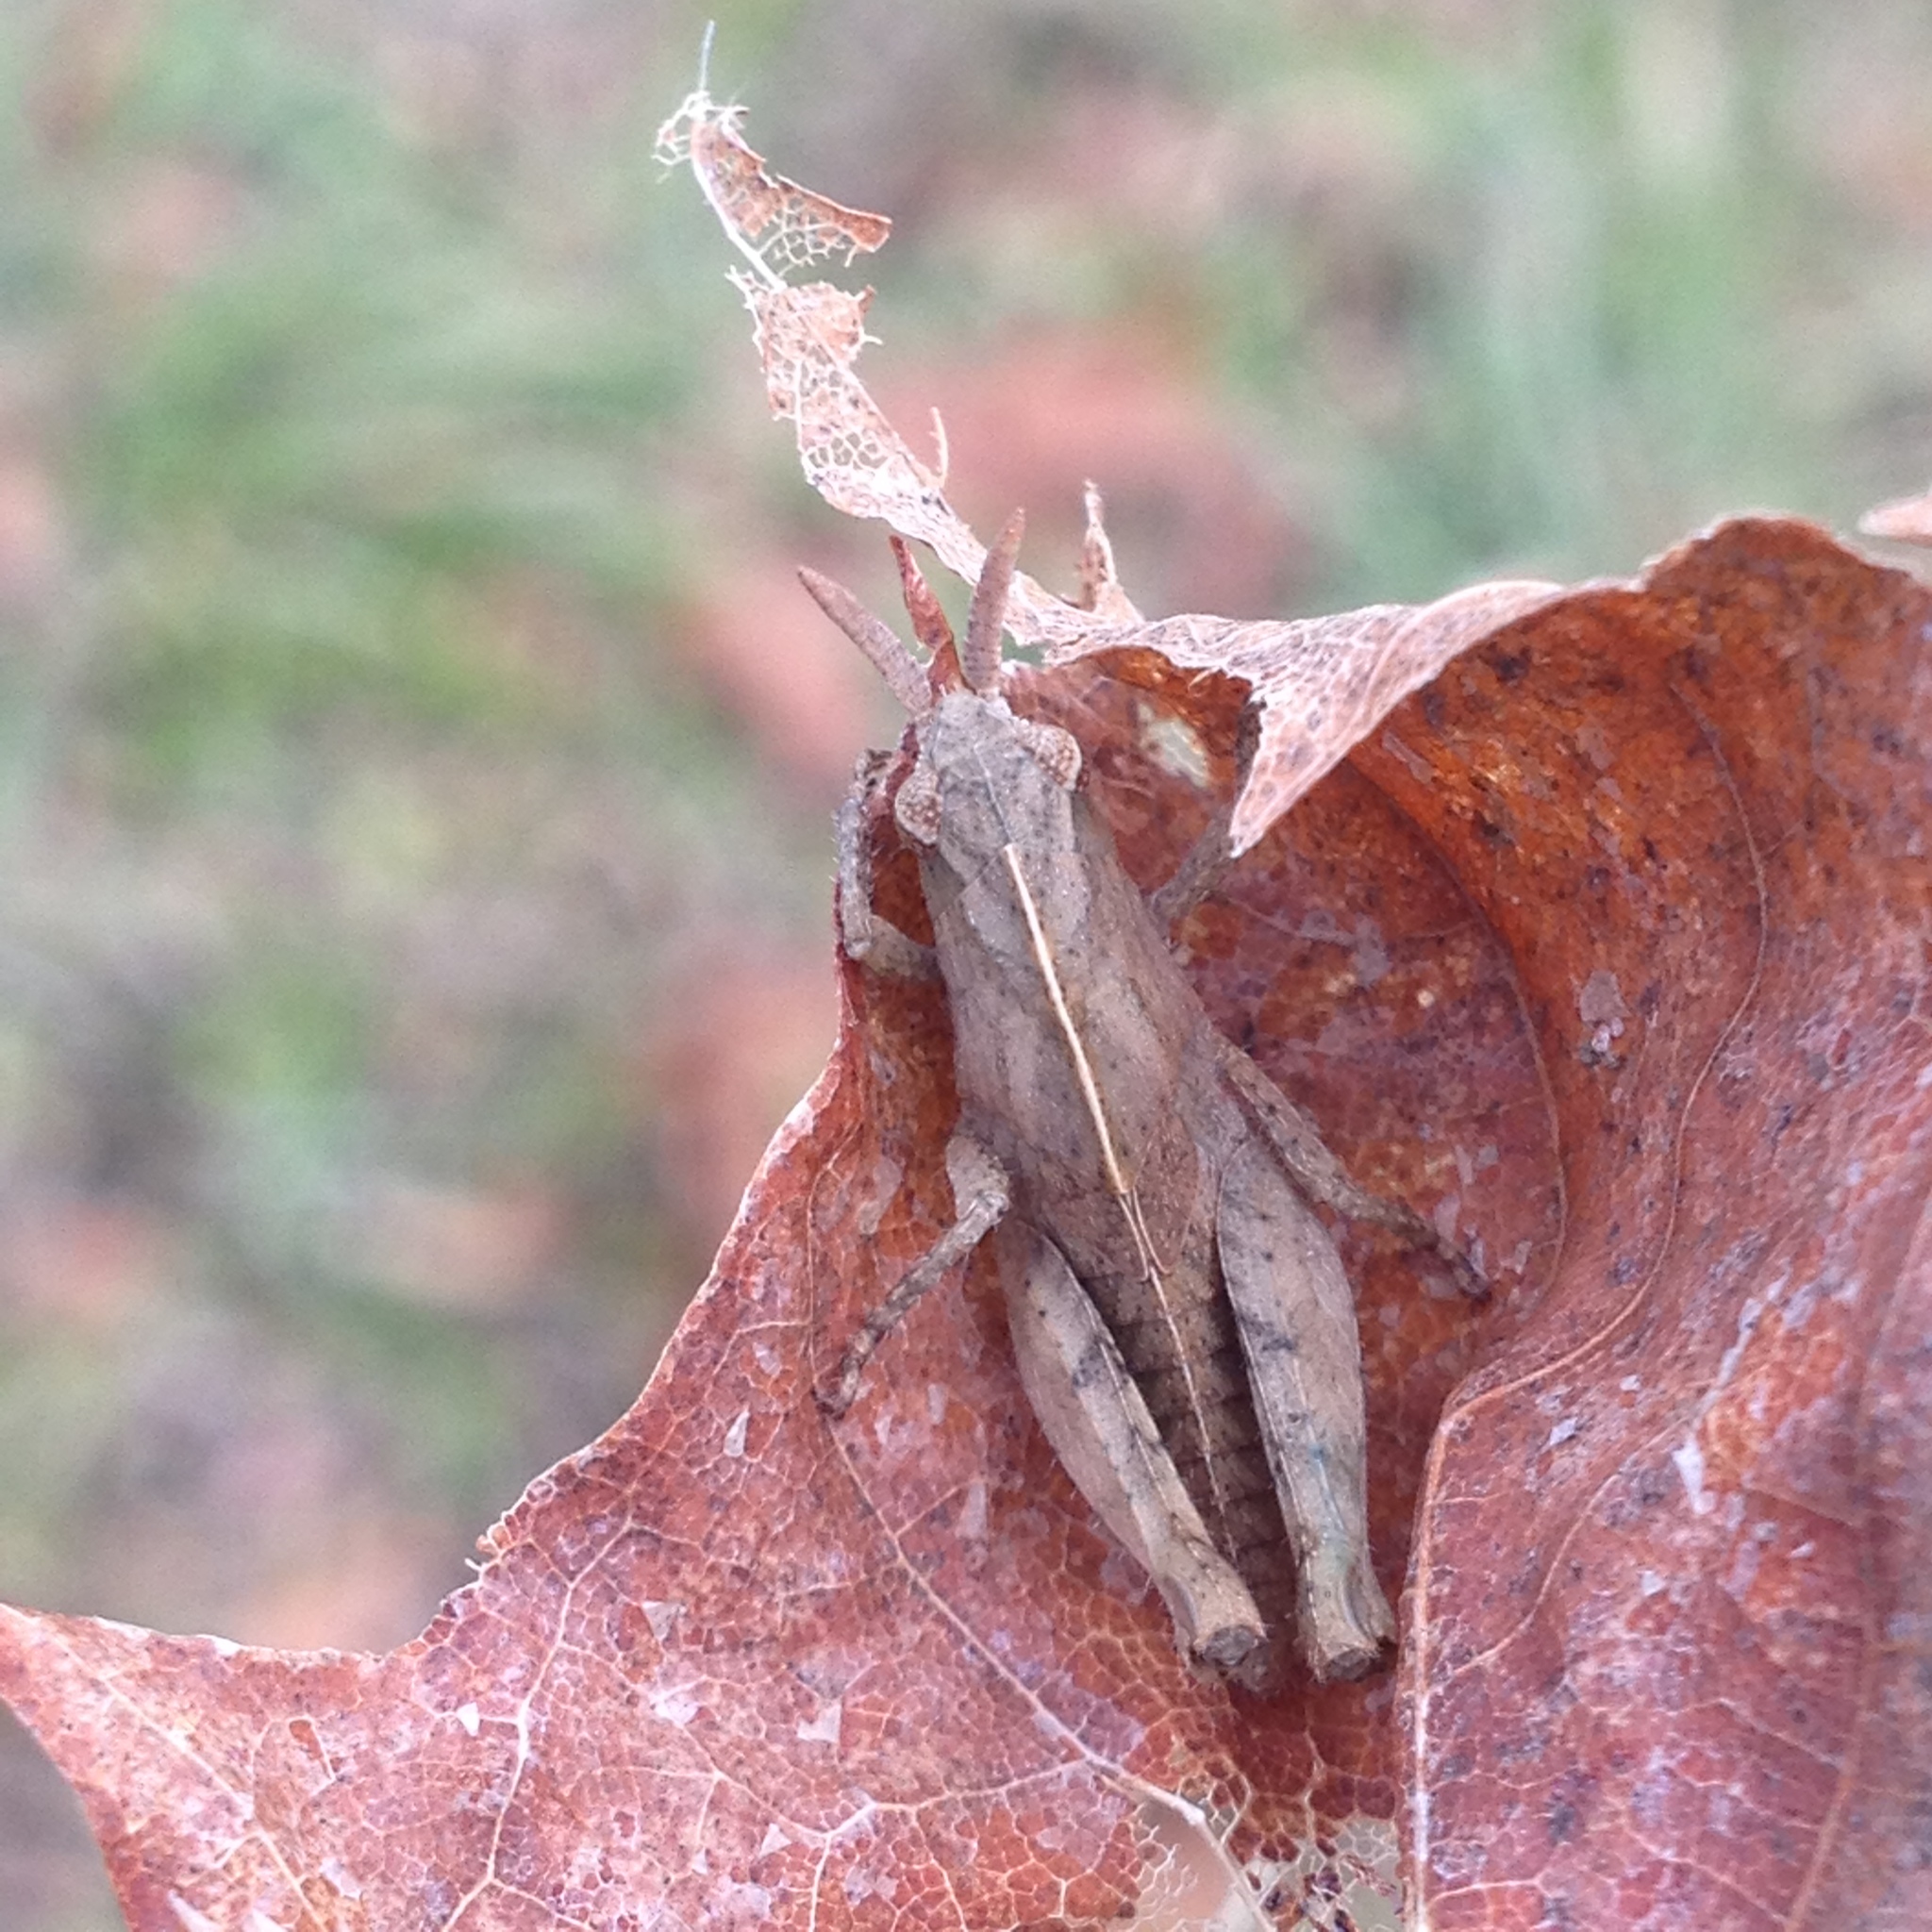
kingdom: Animalia
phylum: Arthropoda
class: Insecta
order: Orthoptera
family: Acrididae
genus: Chortophaga
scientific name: Chortophaga viridifasciata
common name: Green-striped grasshopper
